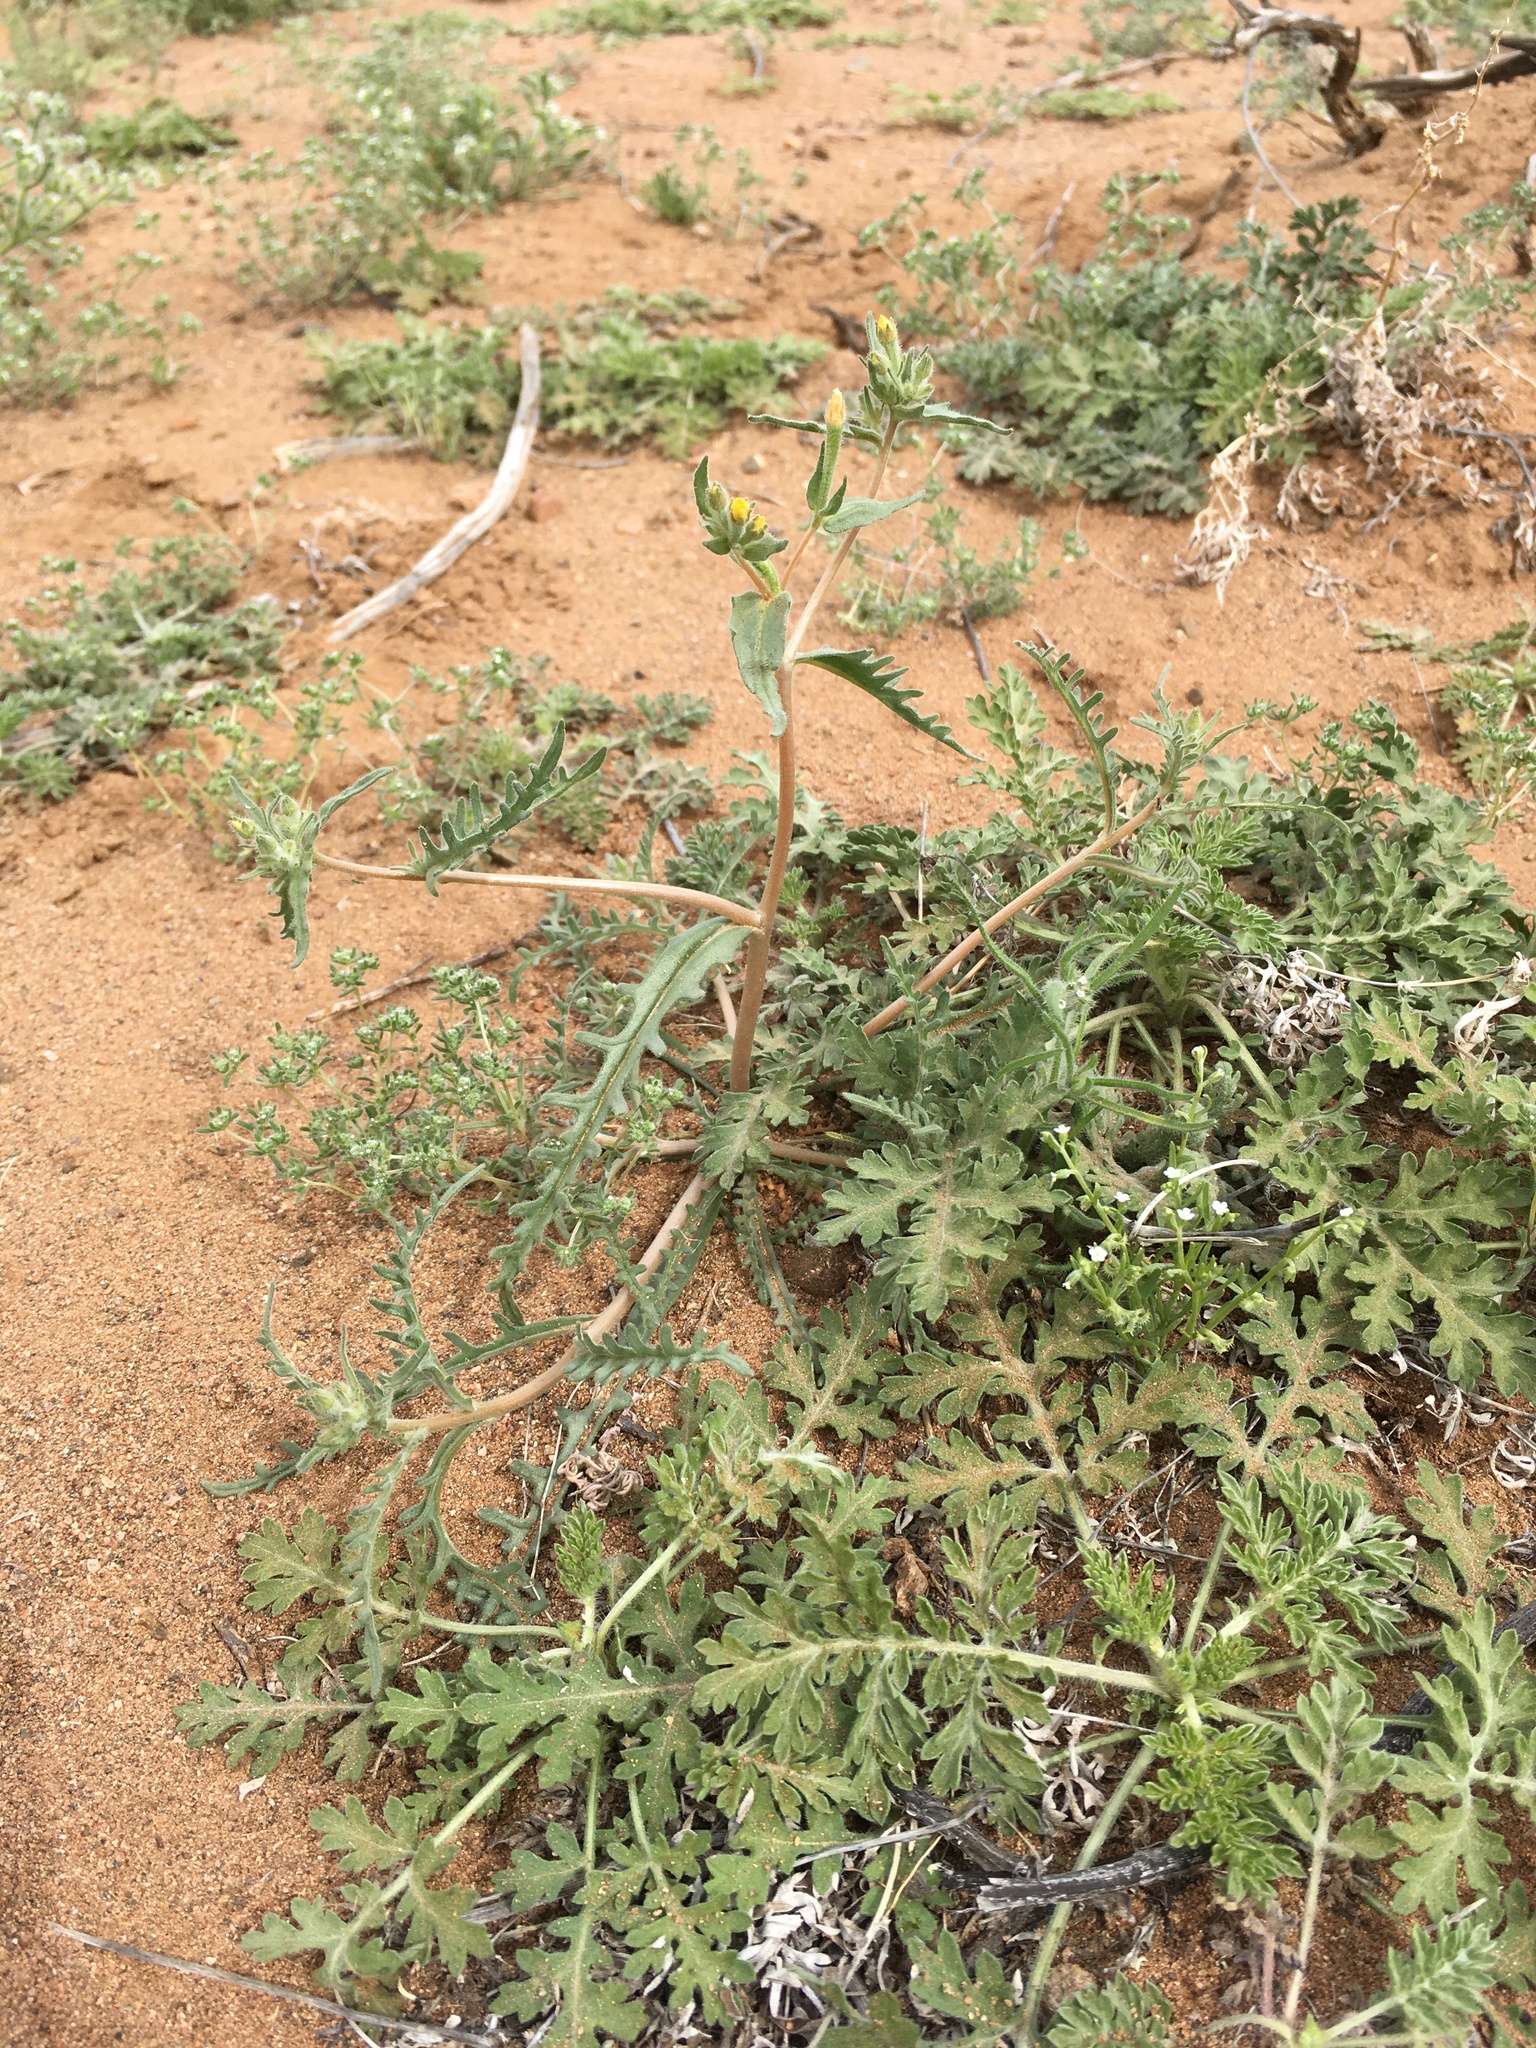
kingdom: Plantae
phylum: Tracheophyta
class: Magnoliopsida
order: Cornales
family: Loasaceae
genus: Mentzelia
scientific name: Mentzelia albicaulis
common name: White-stem blazingstar
